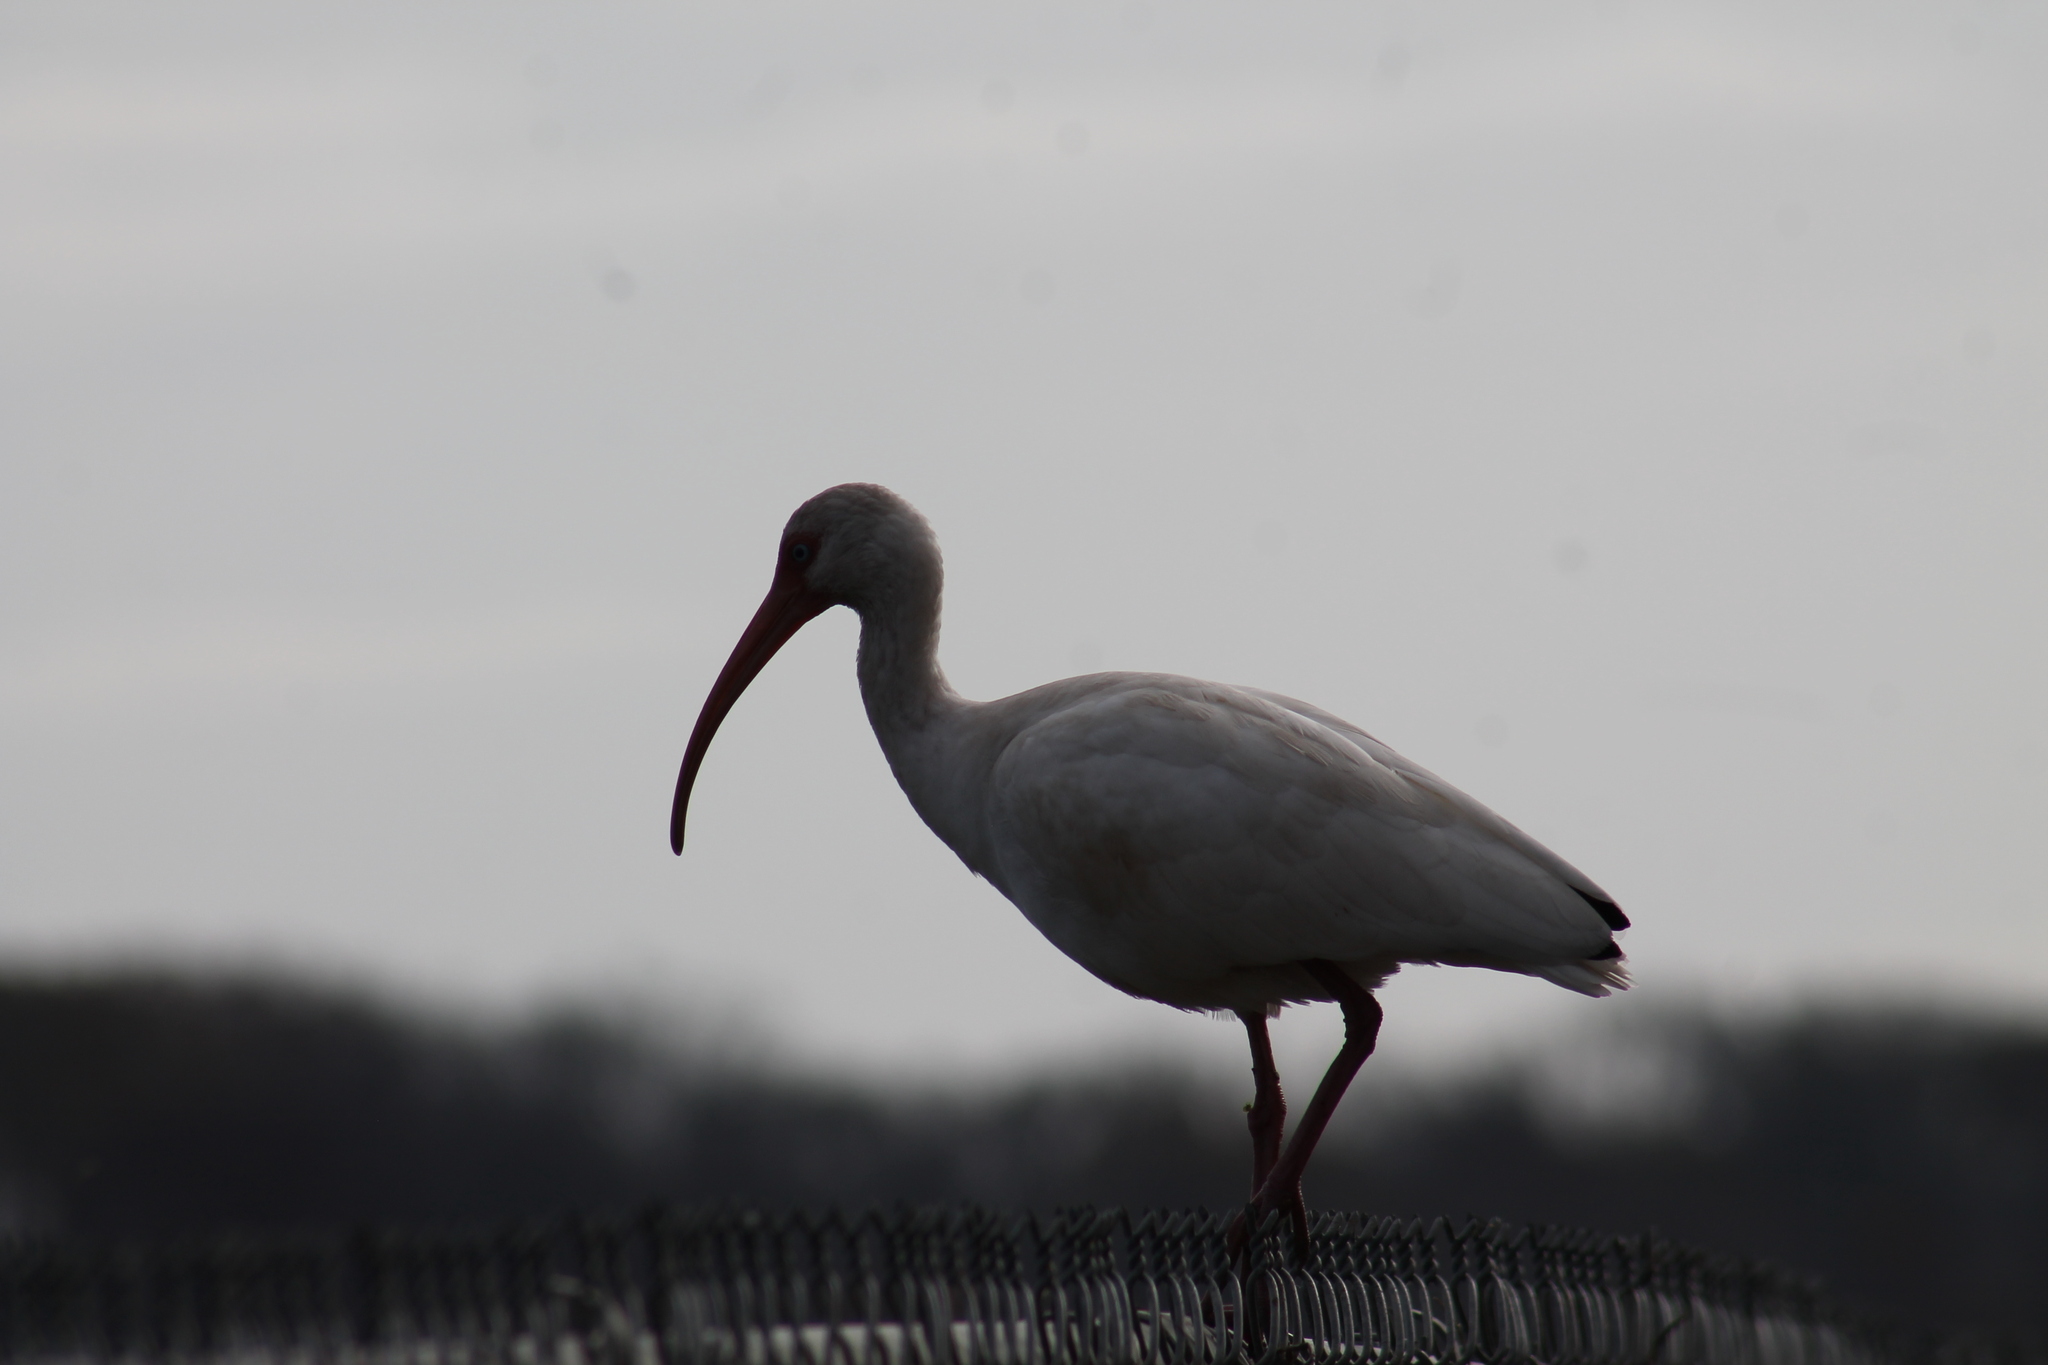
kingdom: Animalia
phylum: Chordata
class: Aves
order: Pelecaniformes
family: Threskiornithidae
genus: Eudocimus
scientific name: Eudocimus albus
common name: White ibis
